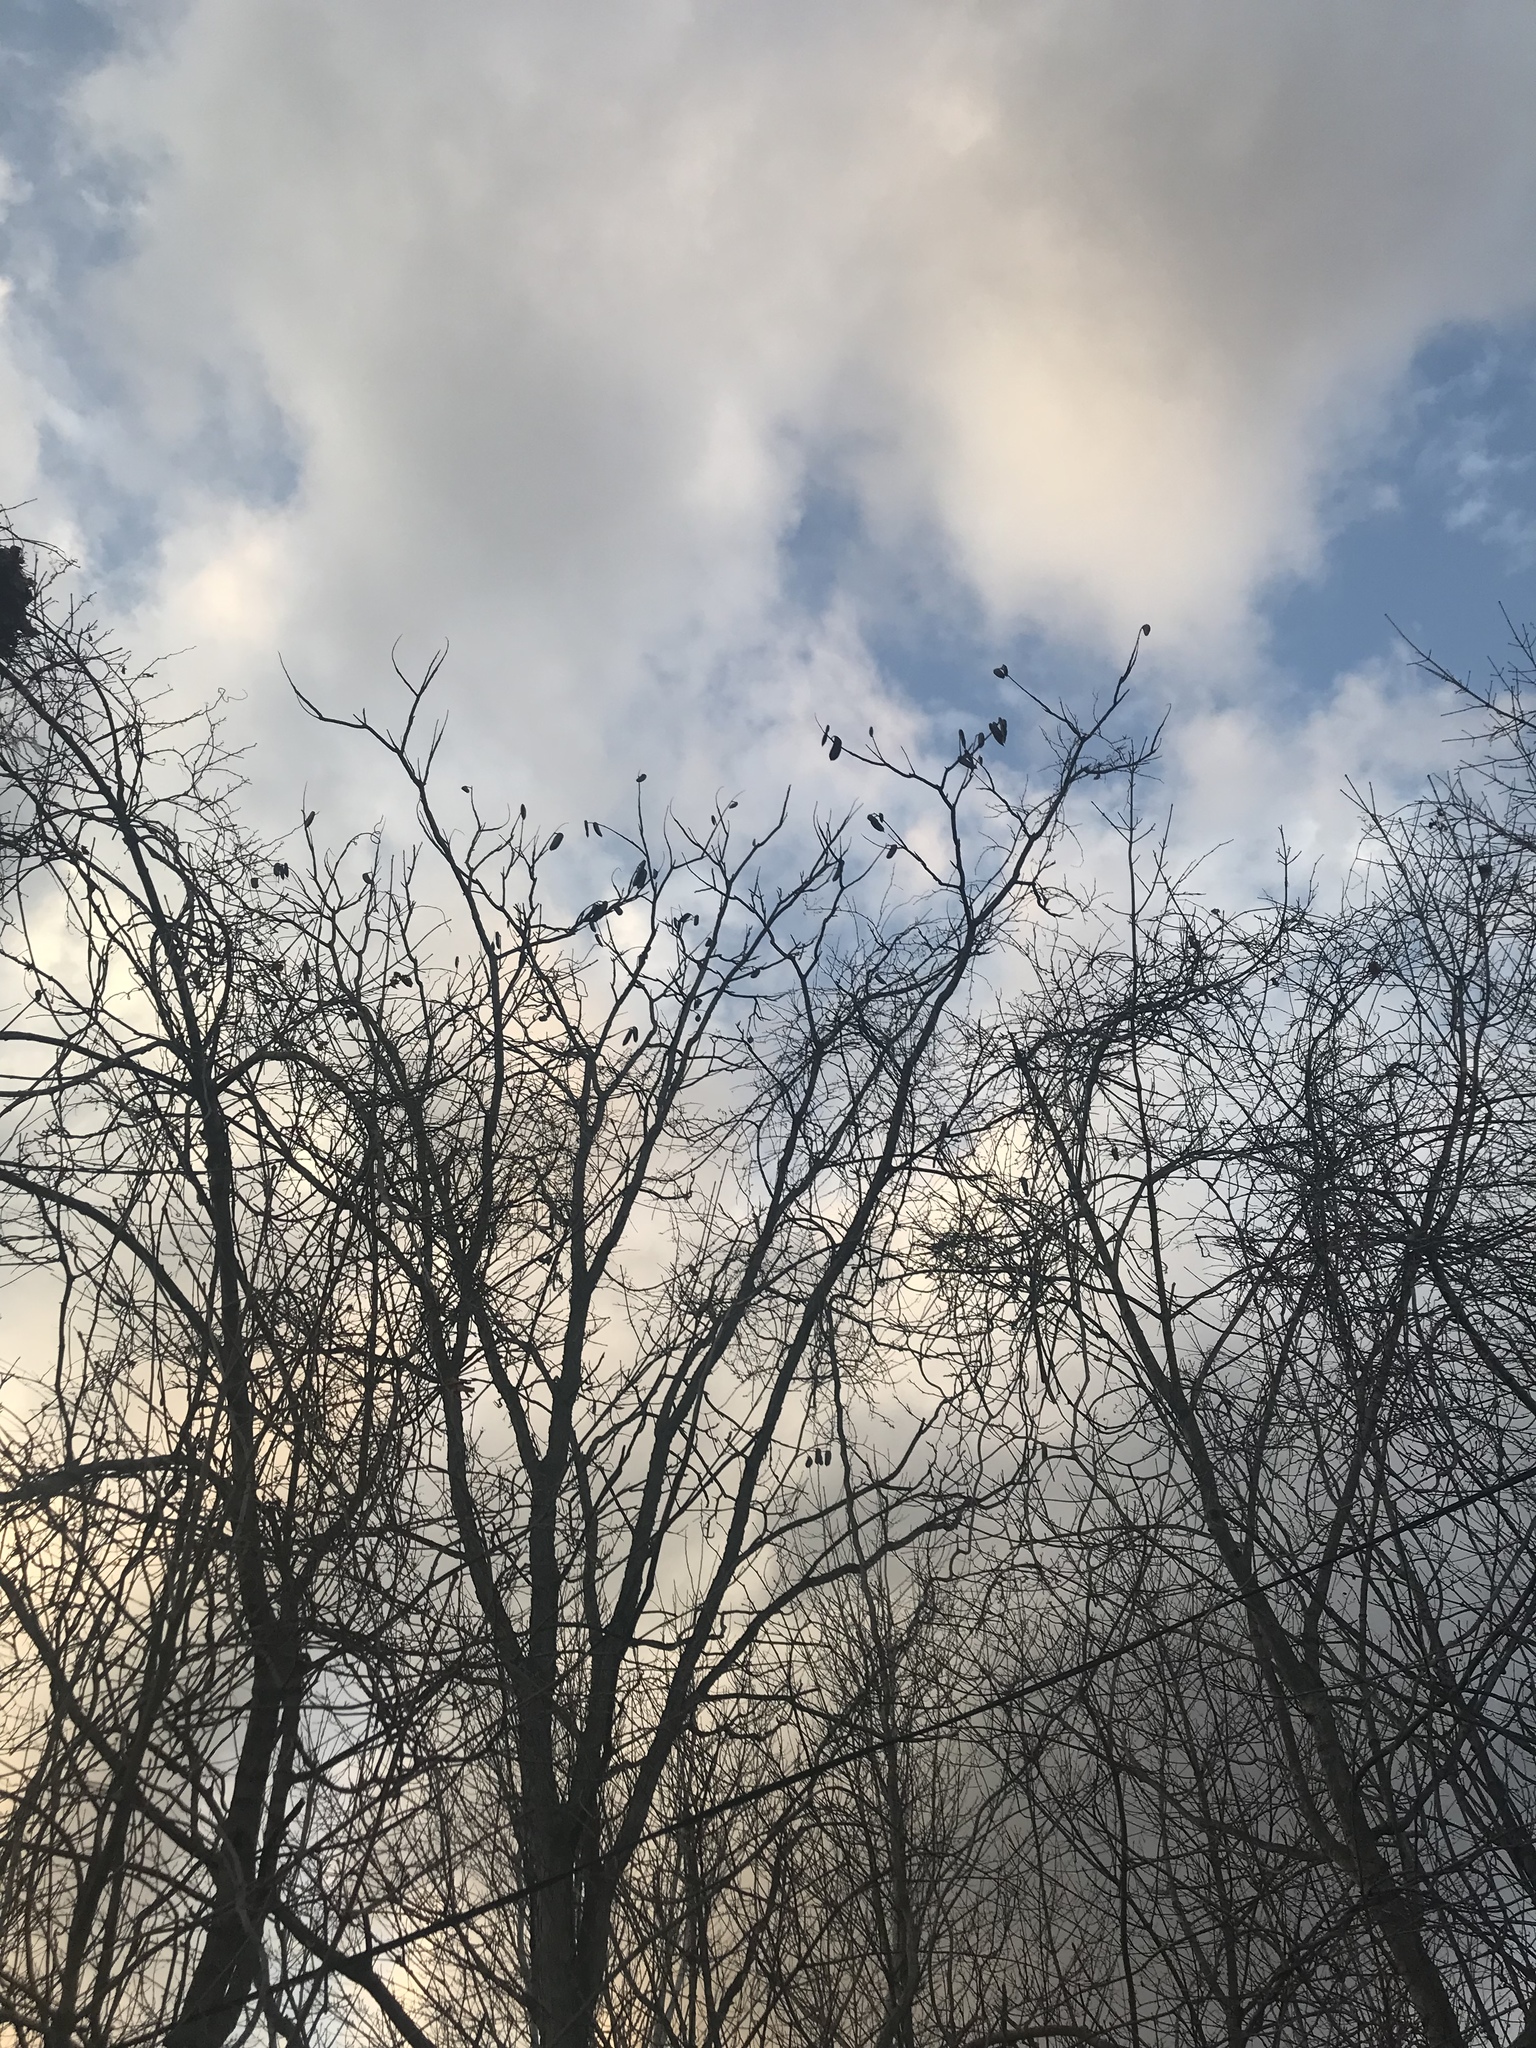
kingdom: Plantae
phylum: Tracheophyta
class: Magnoliopsida
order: Fabales
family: Fabaceae
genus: Gymnocladus
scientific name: Gymnocladus dioicus
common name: Kentucky coffee-tree
